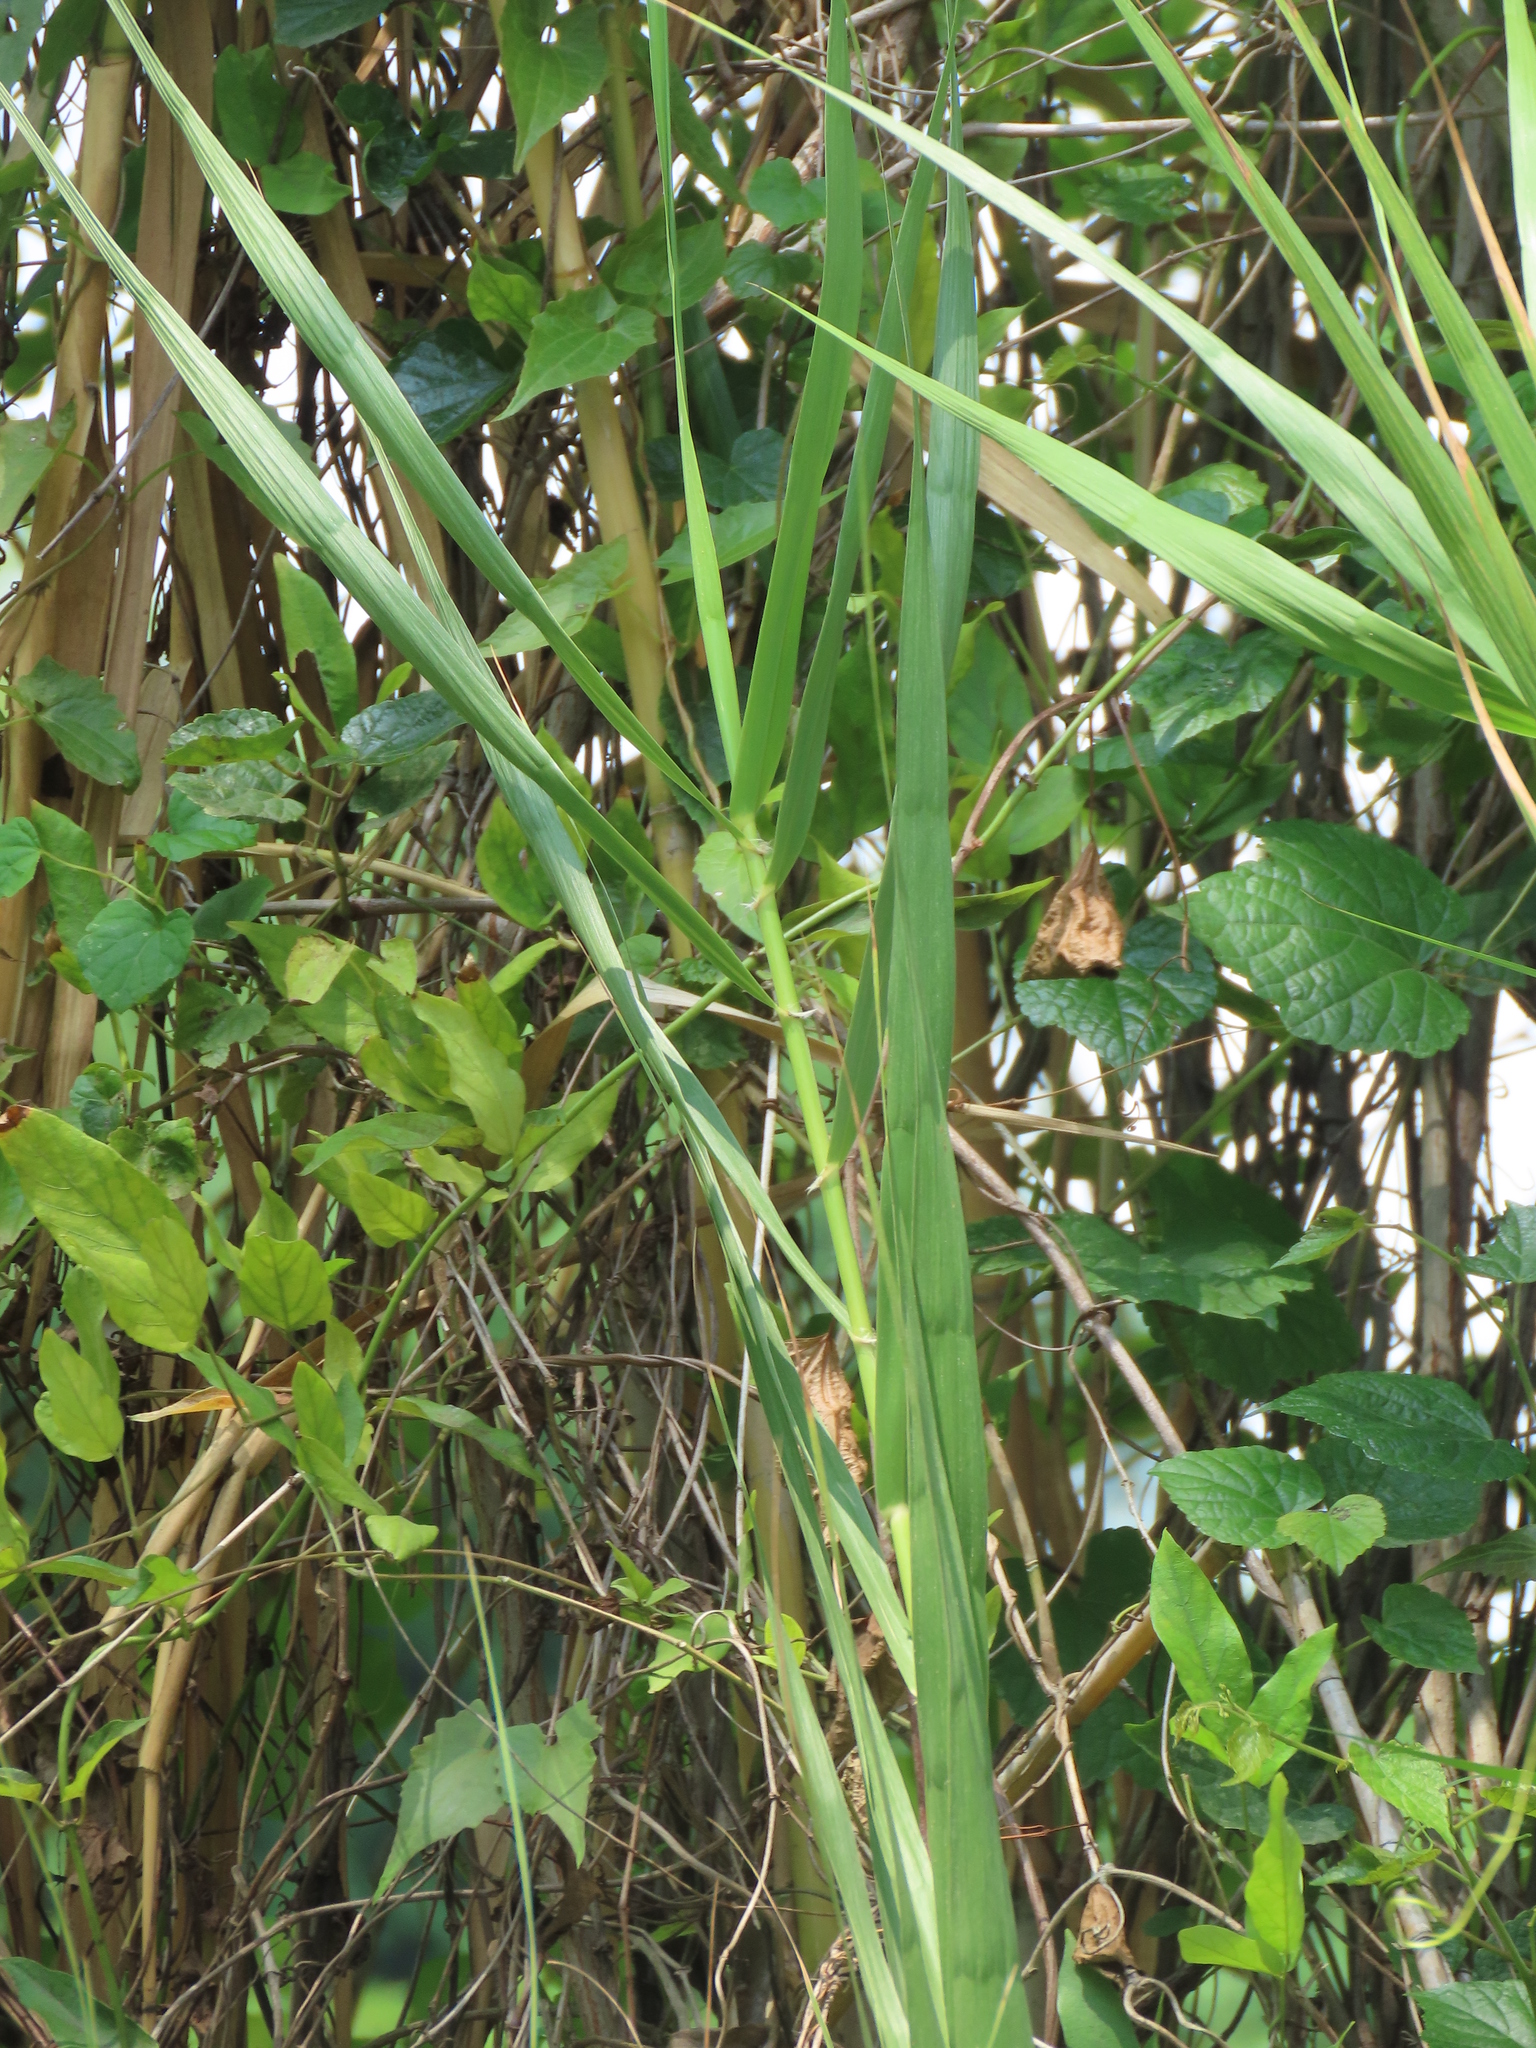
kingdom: Plantae
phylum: Tracheophyta
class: Liliopsida
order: Poales
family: Poaceae
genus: Phragmites
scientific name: Phragmites karka
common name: Tropical reed
